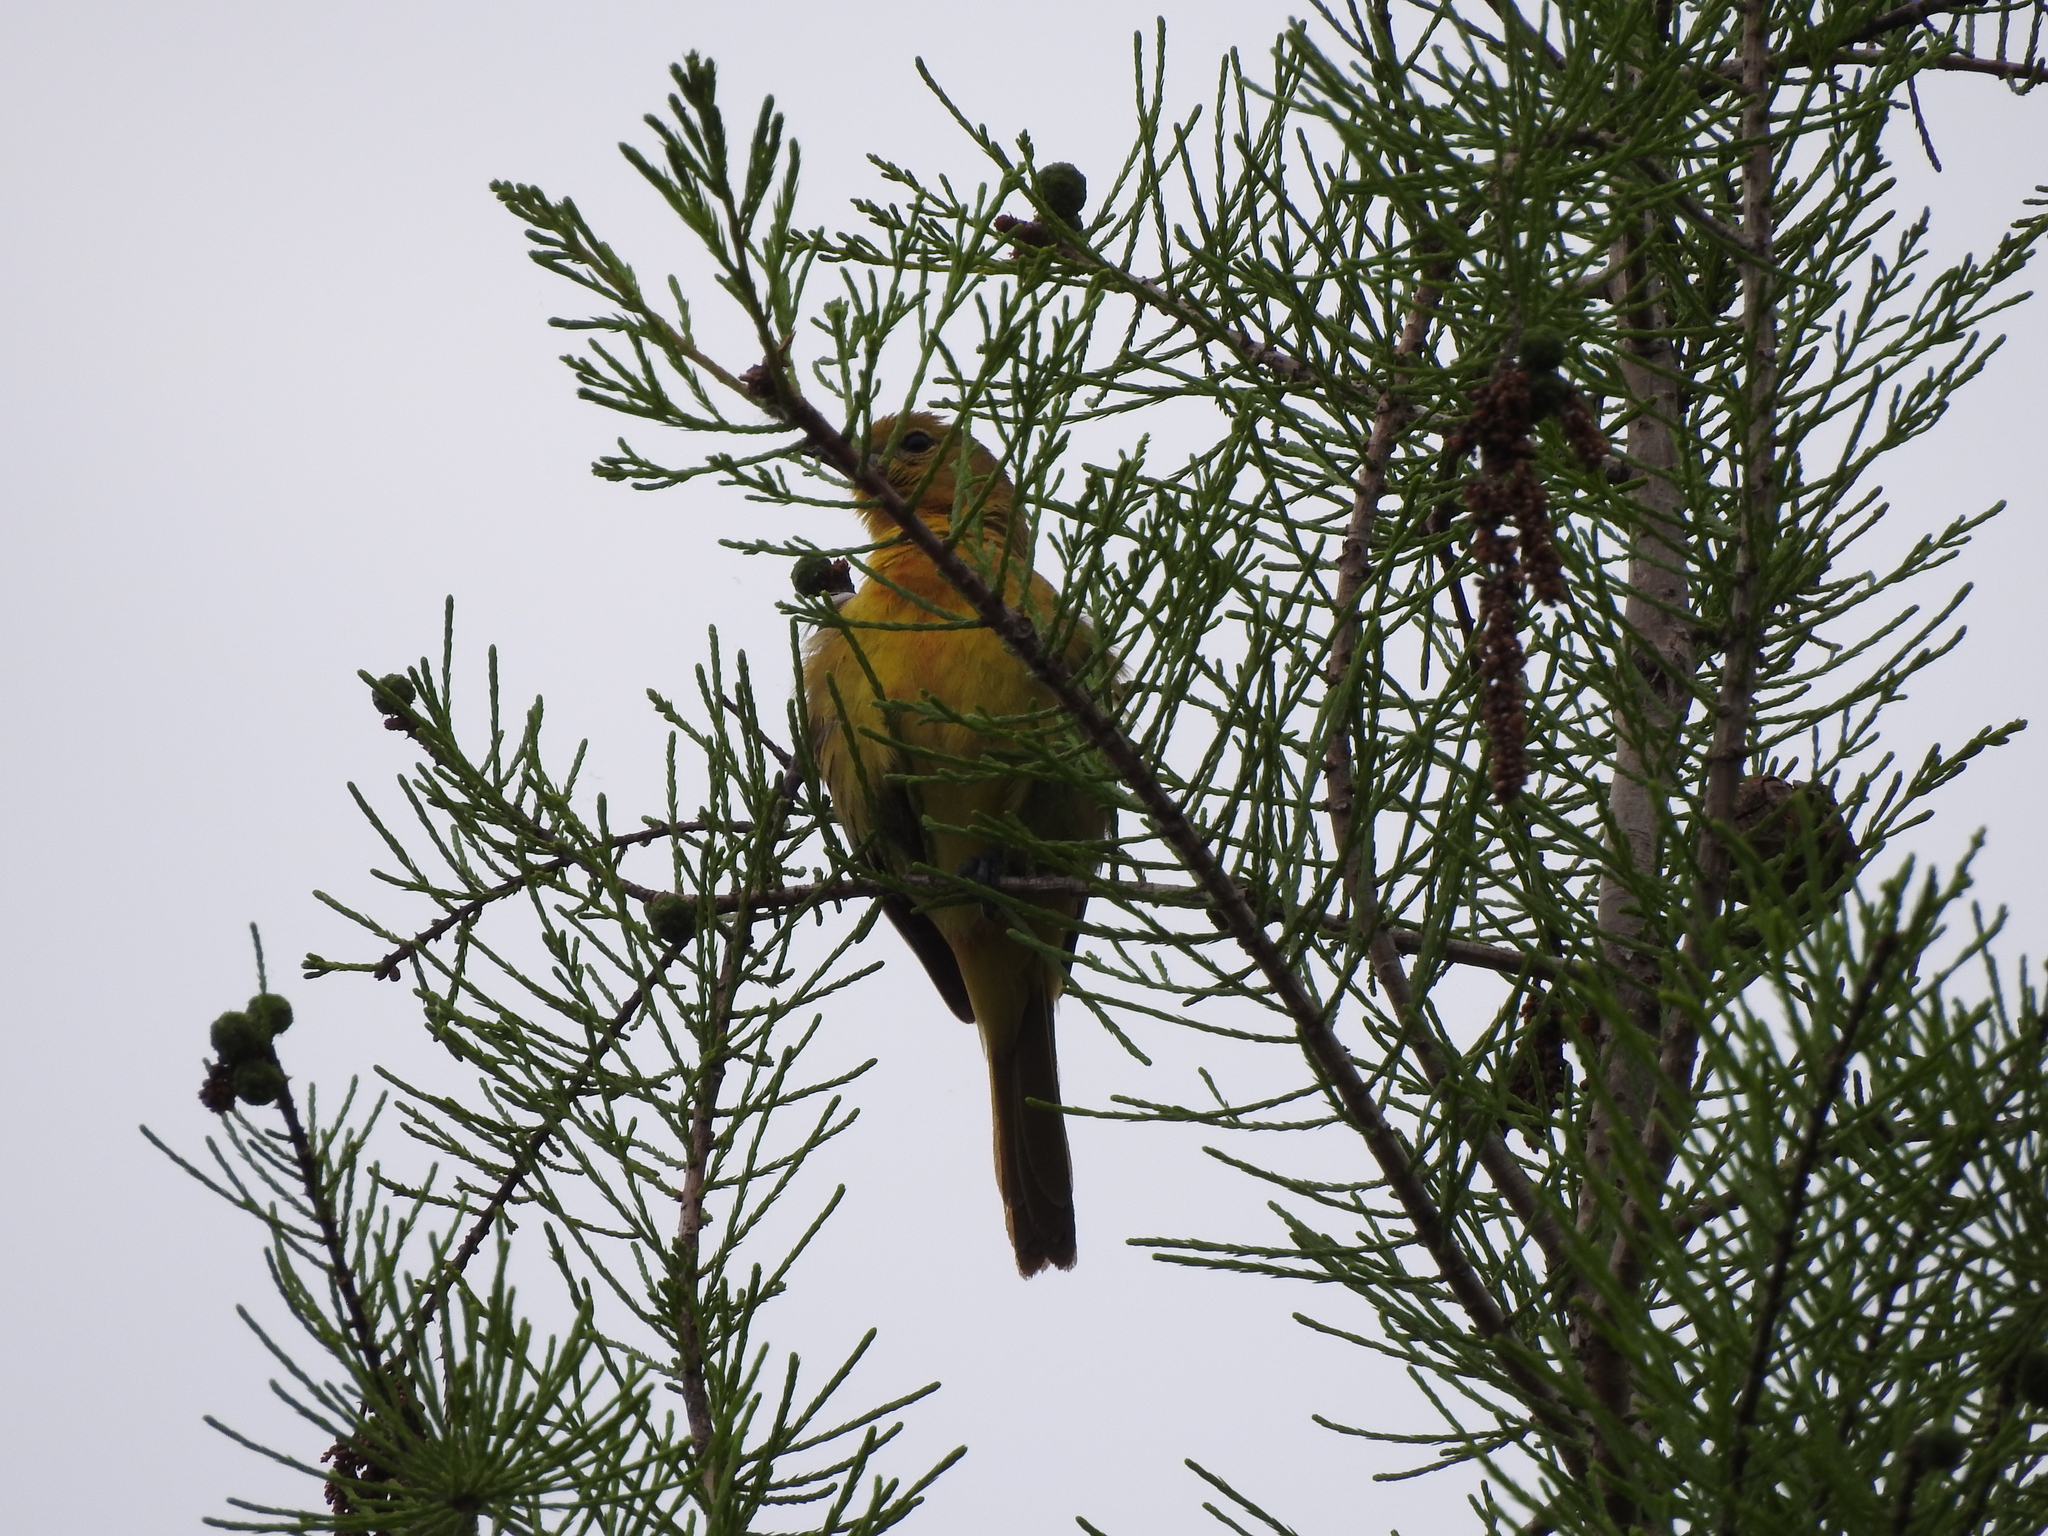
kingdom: Animalia
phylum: Chordata
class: Aves
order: Passeriformes
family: Icteridae
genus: Icterus
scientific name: Icterus galbula
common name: Baltimore oriole
